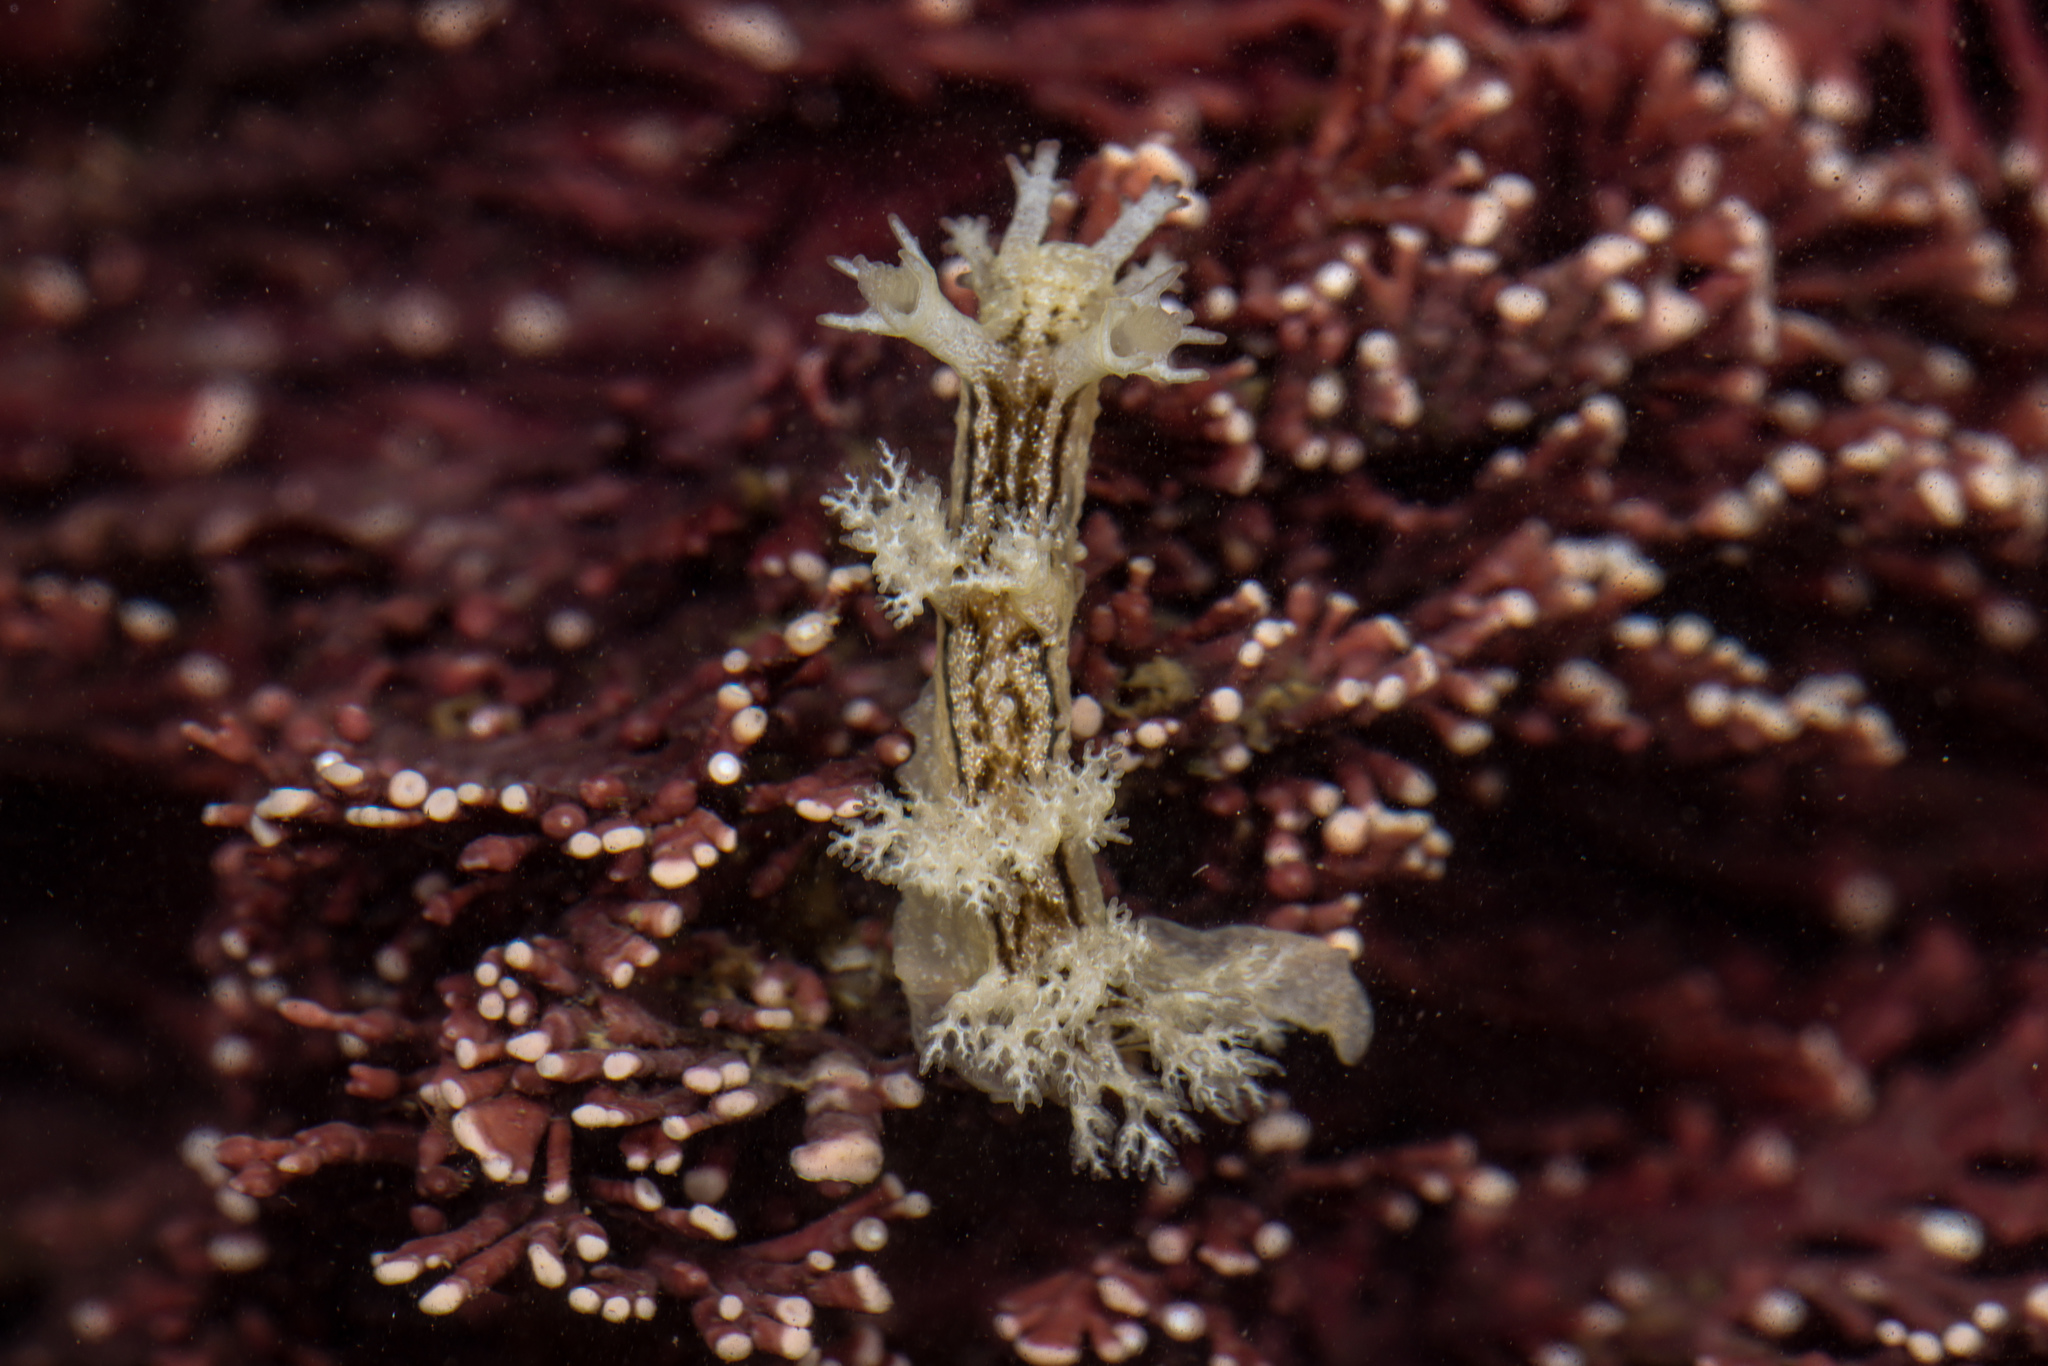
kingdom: Animalia
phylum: Mollusca
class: Gastropoda
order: Nudibranchia
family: Dendronotidae
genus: Dendronotus
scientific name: Dendronotus subramosus
